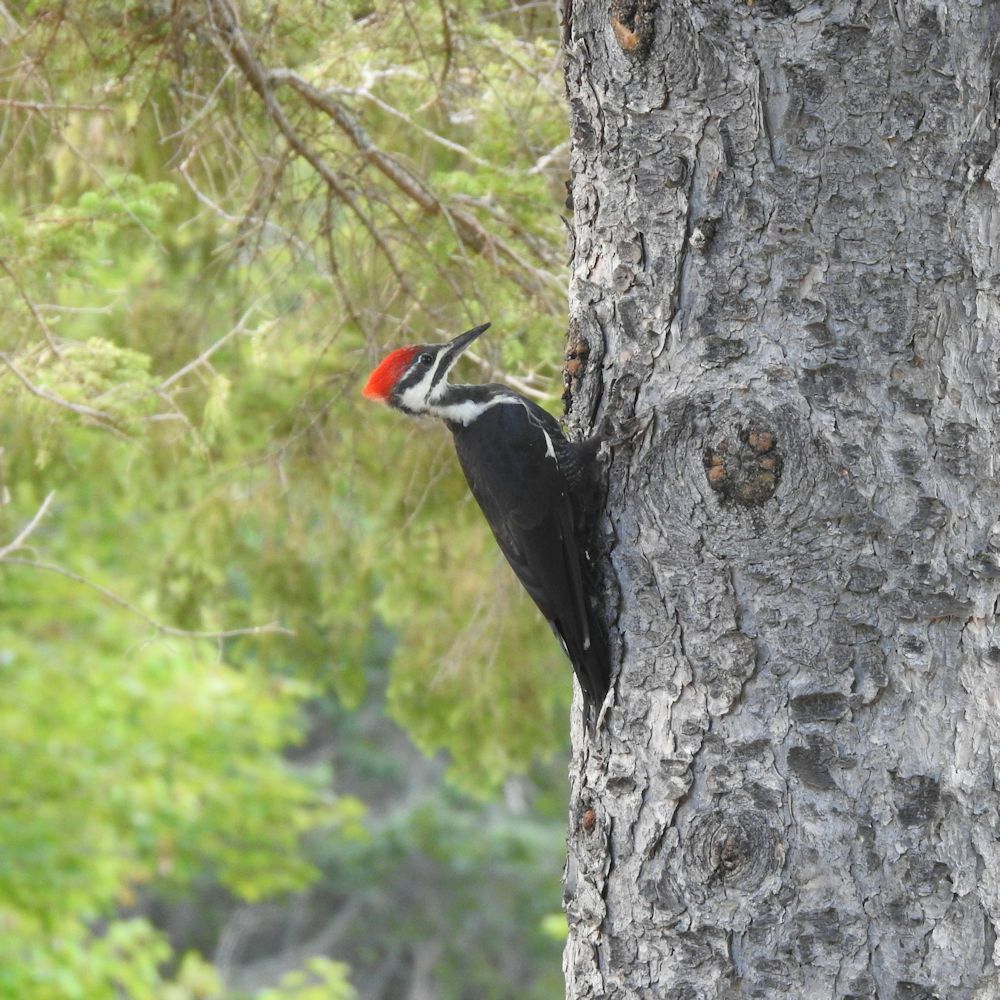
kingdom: Animalia
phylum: Chordata
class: Aves
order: Piciformes
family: Picidae
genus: Dryocopus
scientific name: Dryocopus pileatus
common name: Pileated woodpecker
